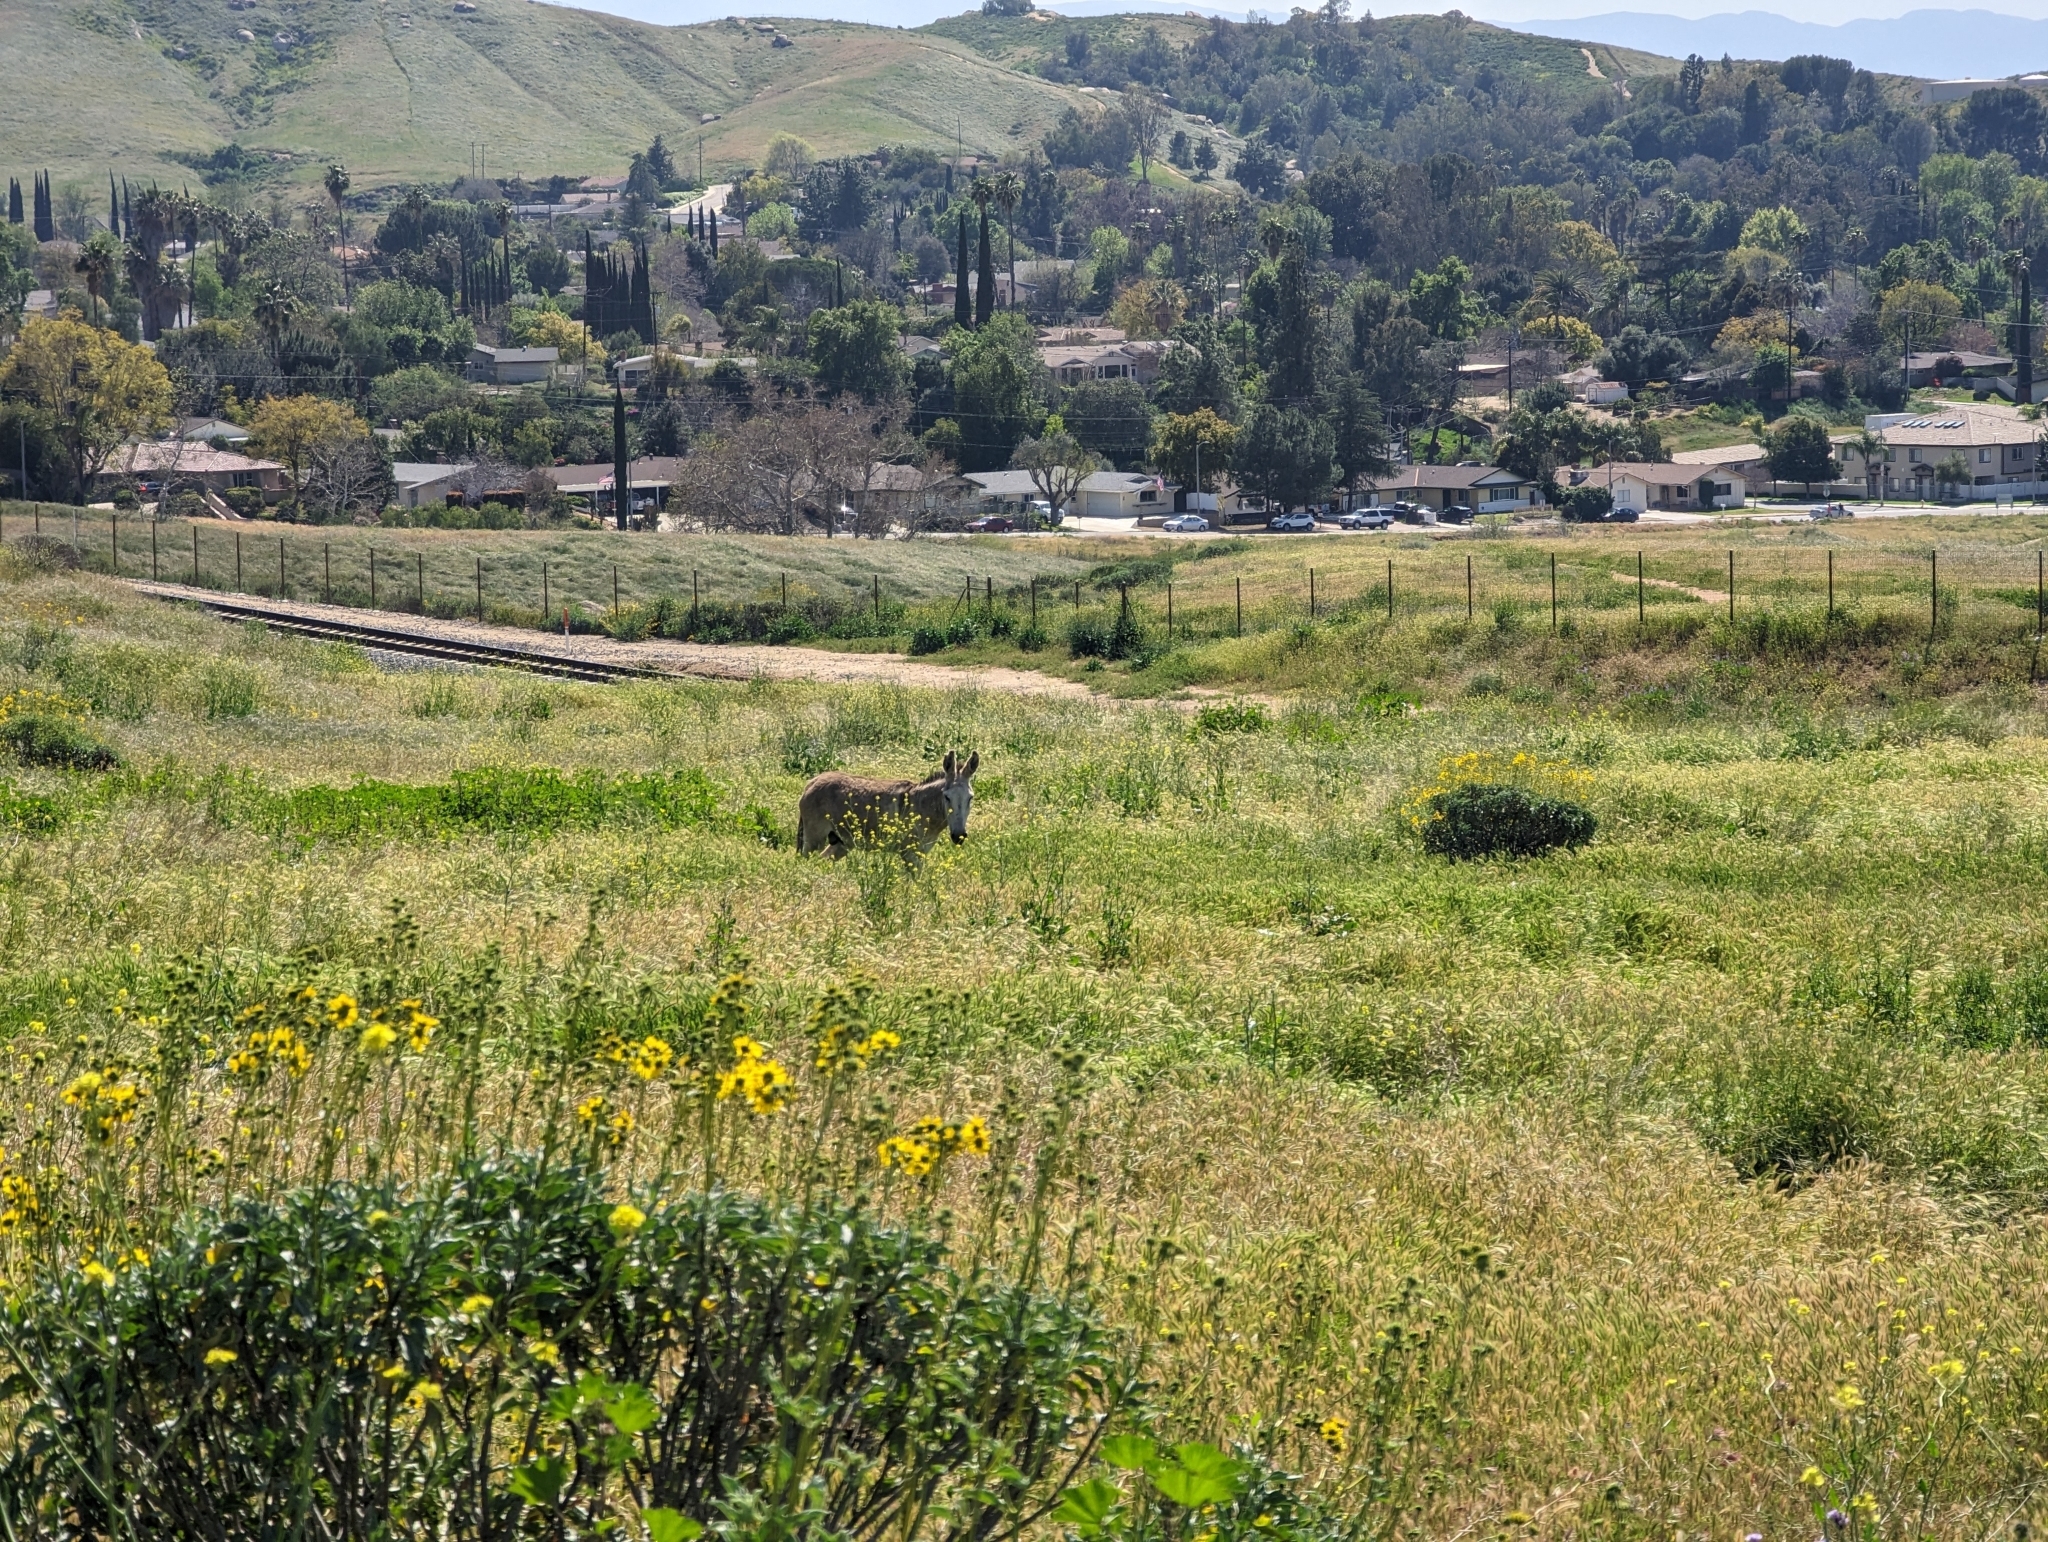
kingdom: Animalia
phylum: Chordata
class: Mammalia
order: Perissodactyla
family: Equidae
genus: Equus
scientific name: Equus asinus
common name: Ass
